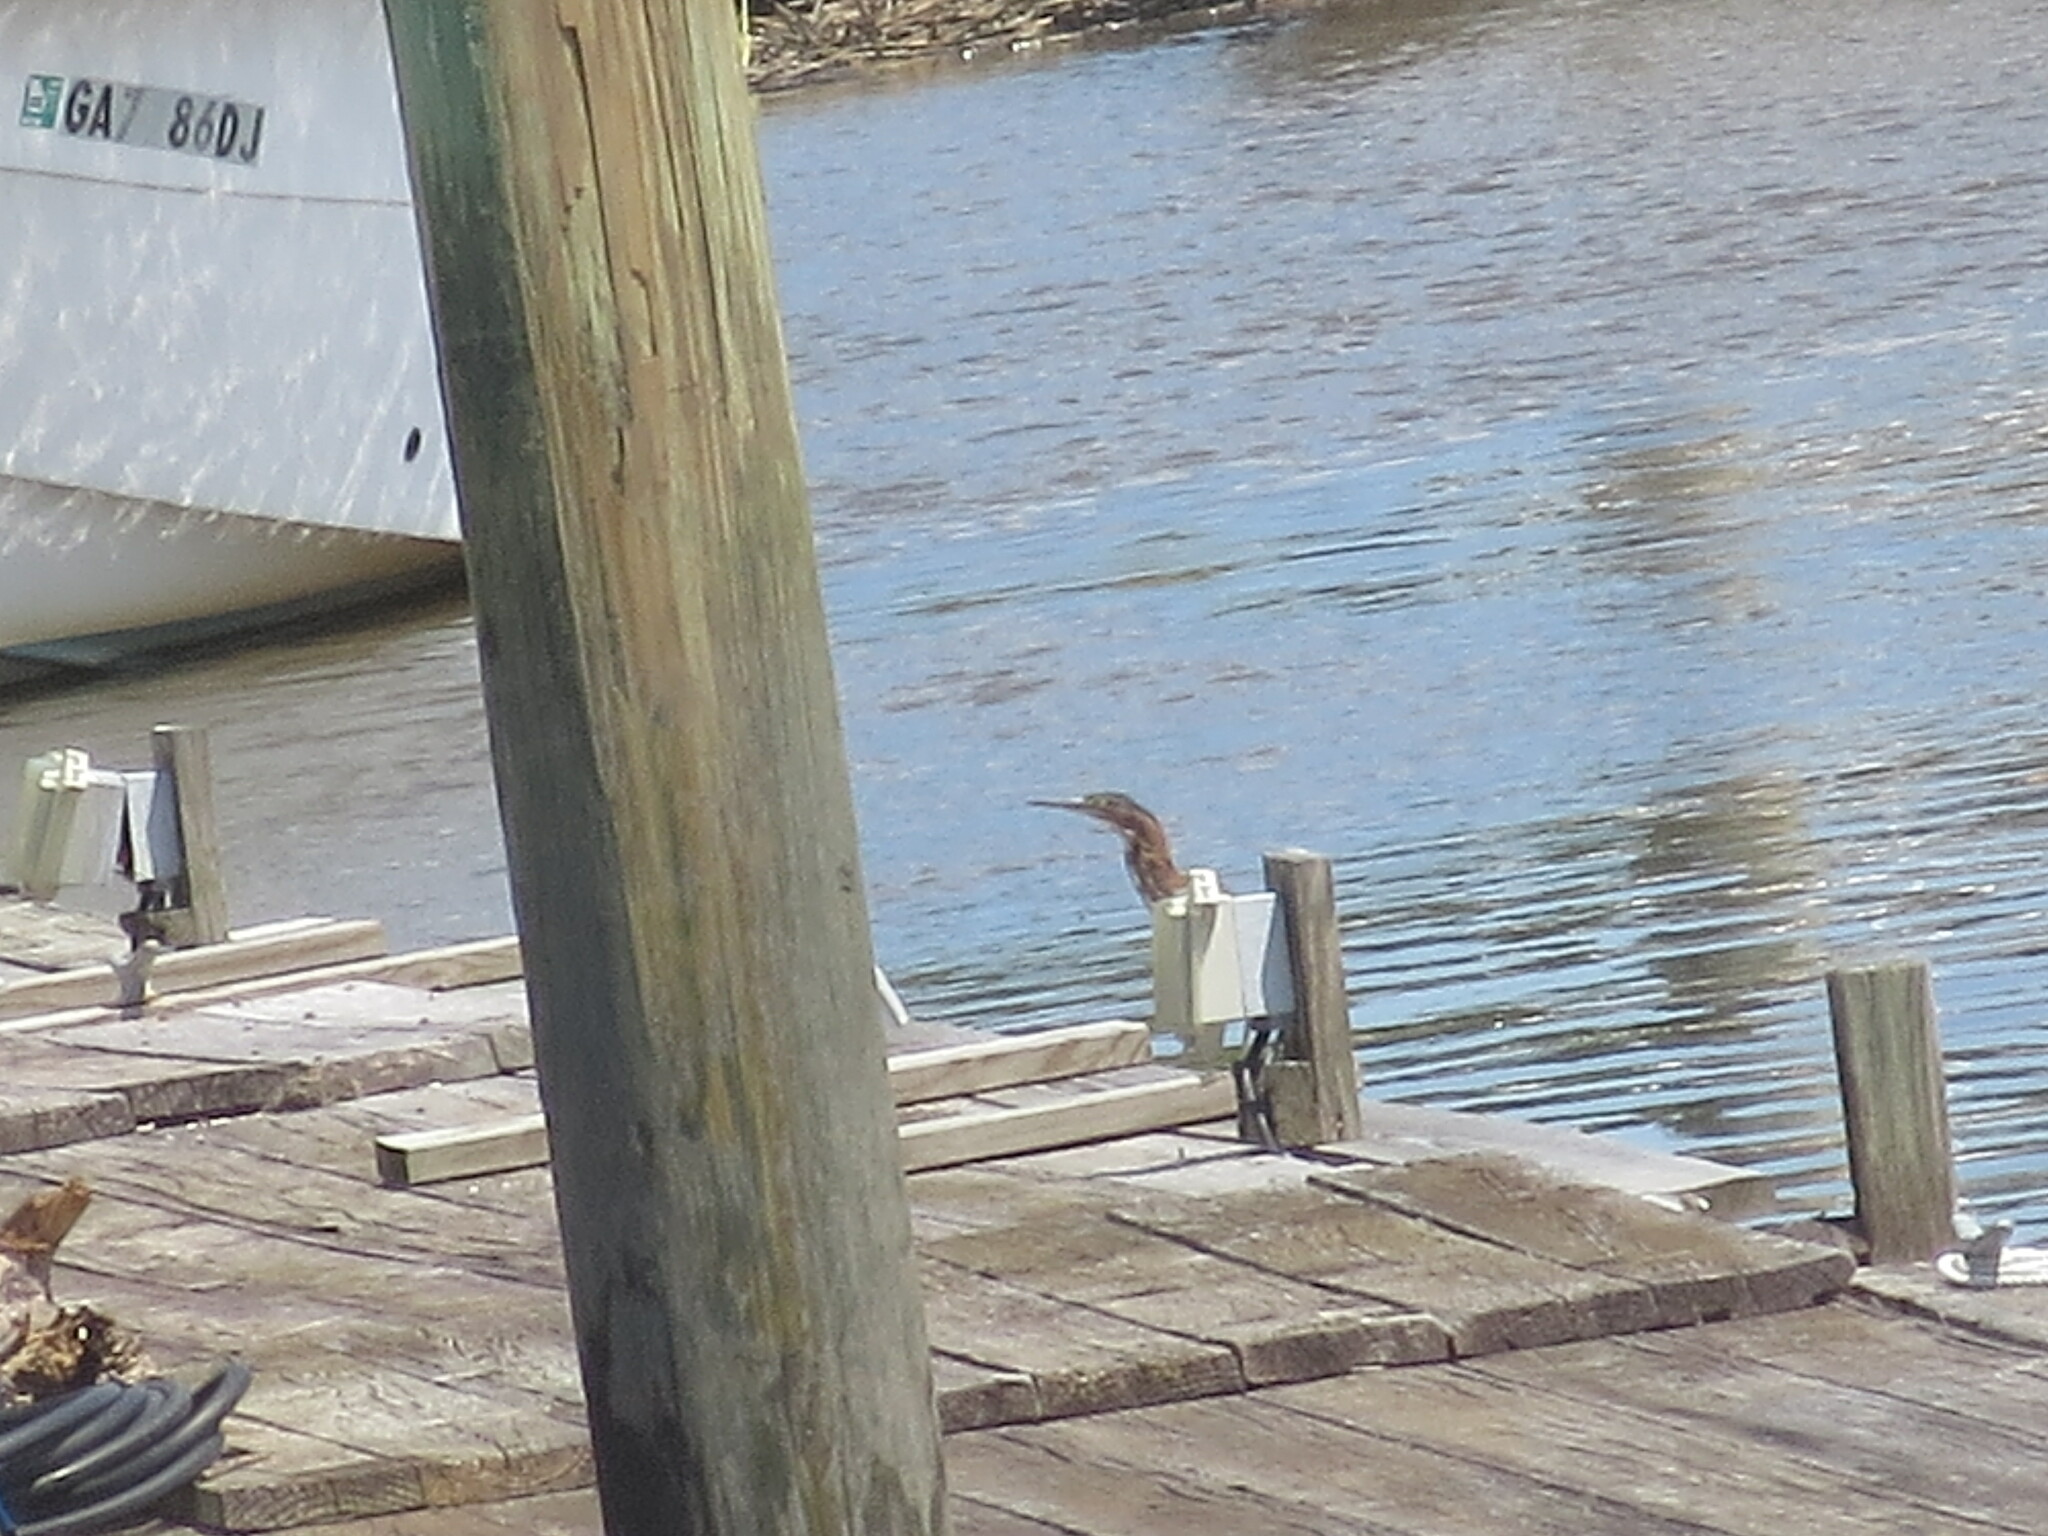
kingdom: Animalia
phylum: Chordata
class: Aves
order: Pelecaniformes
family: Ardeidae
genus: Butorides
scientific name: Butorides virescens
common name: Green heron
